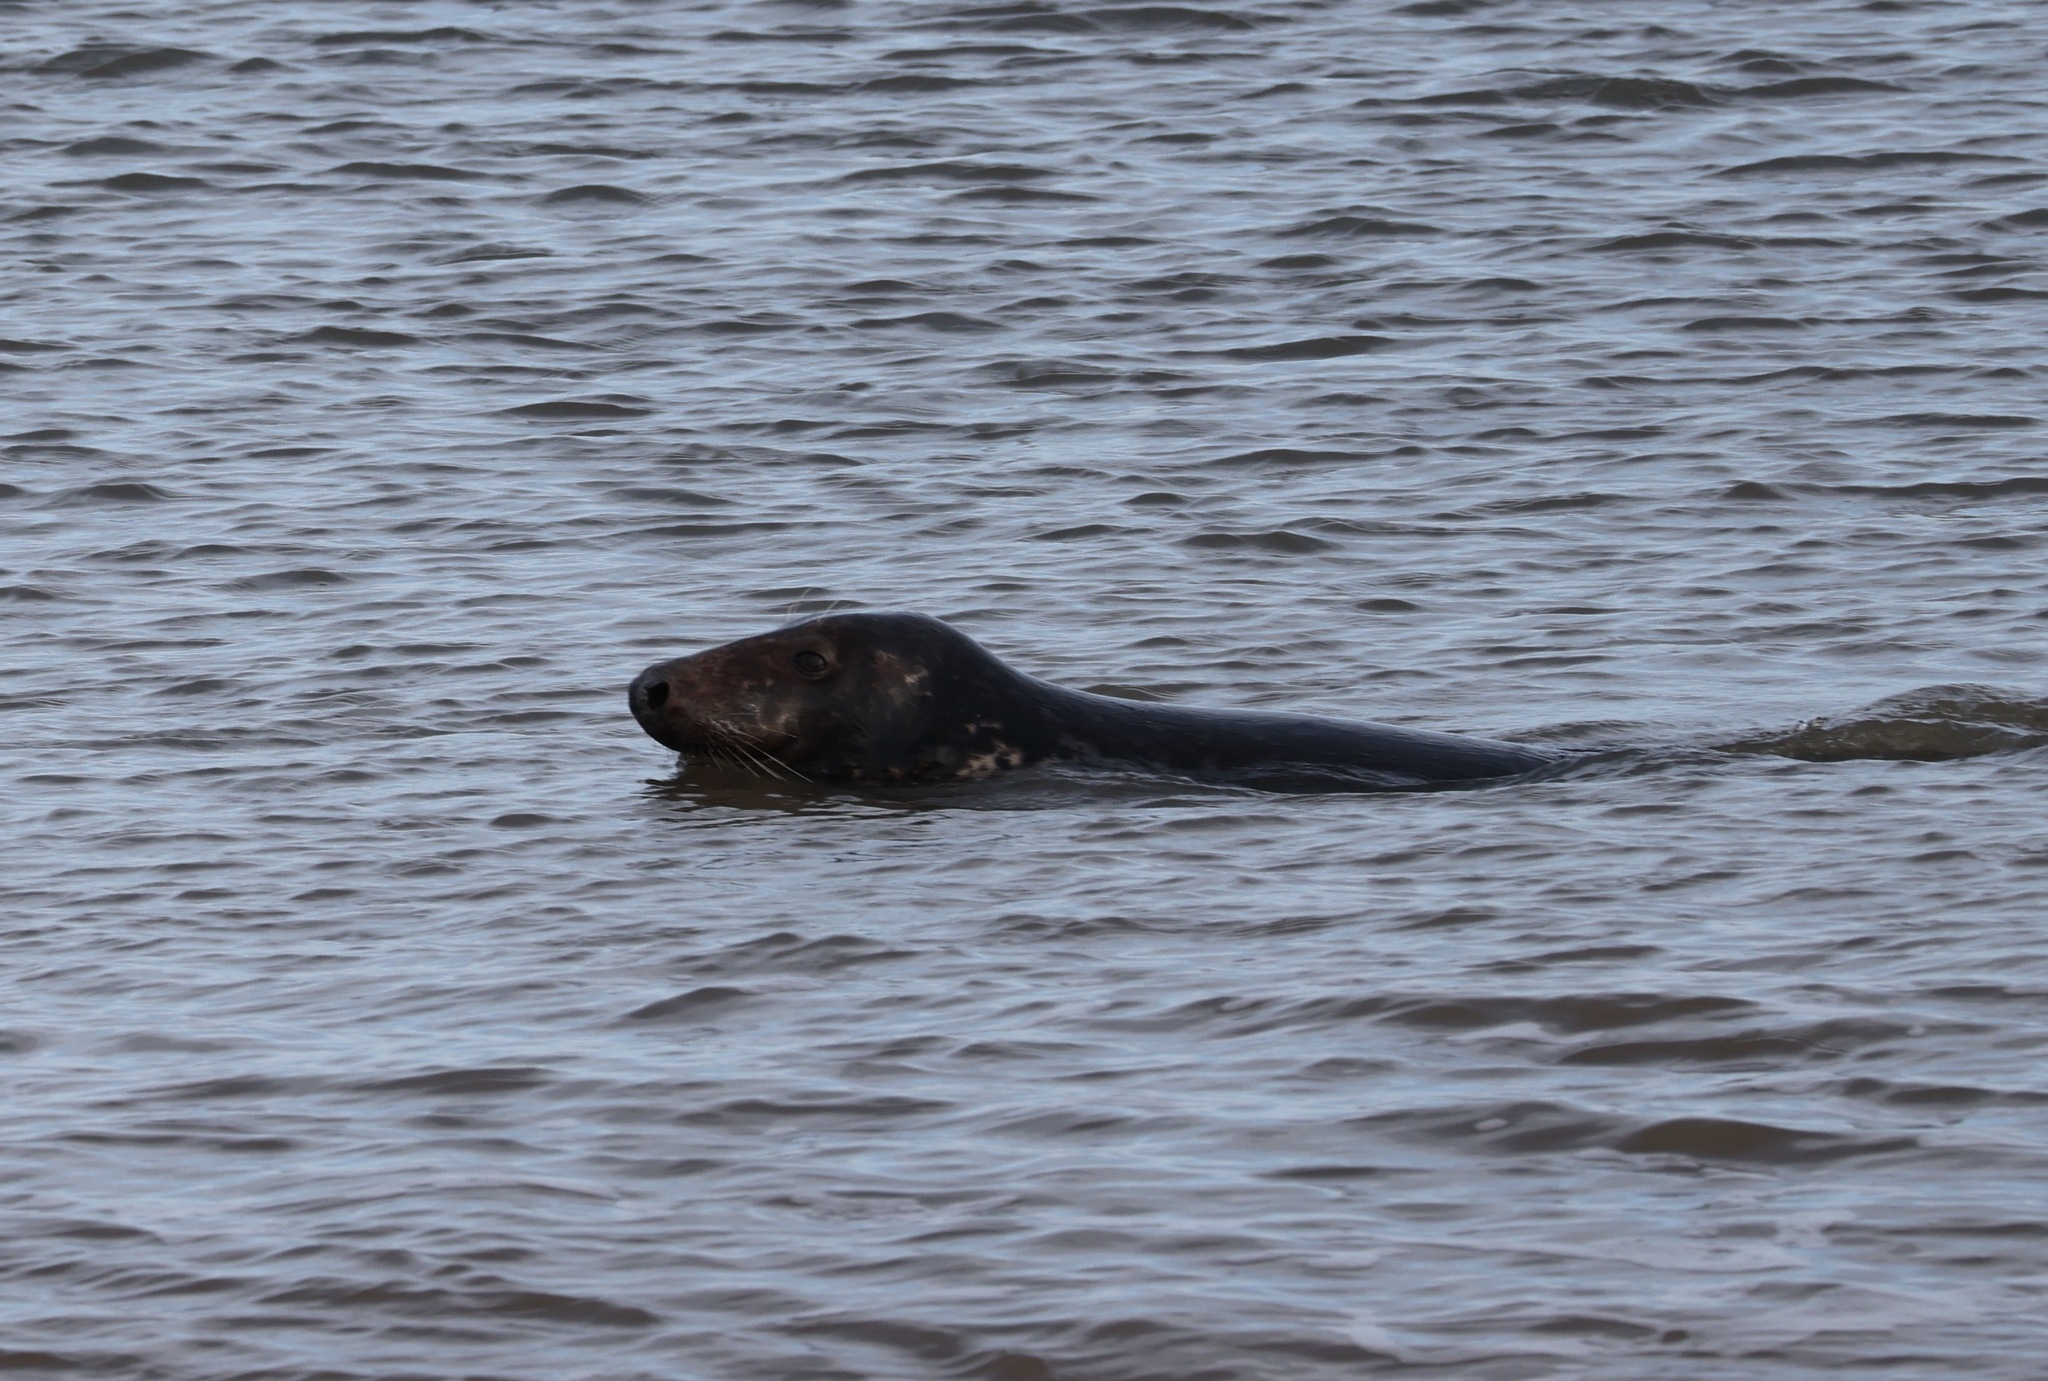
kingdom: Animalia
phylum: Chordata
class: Mammalia
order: Carnivora
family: Phocidae
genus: Halichoerus
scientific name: Halichoerus grypus
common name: Grey seal
